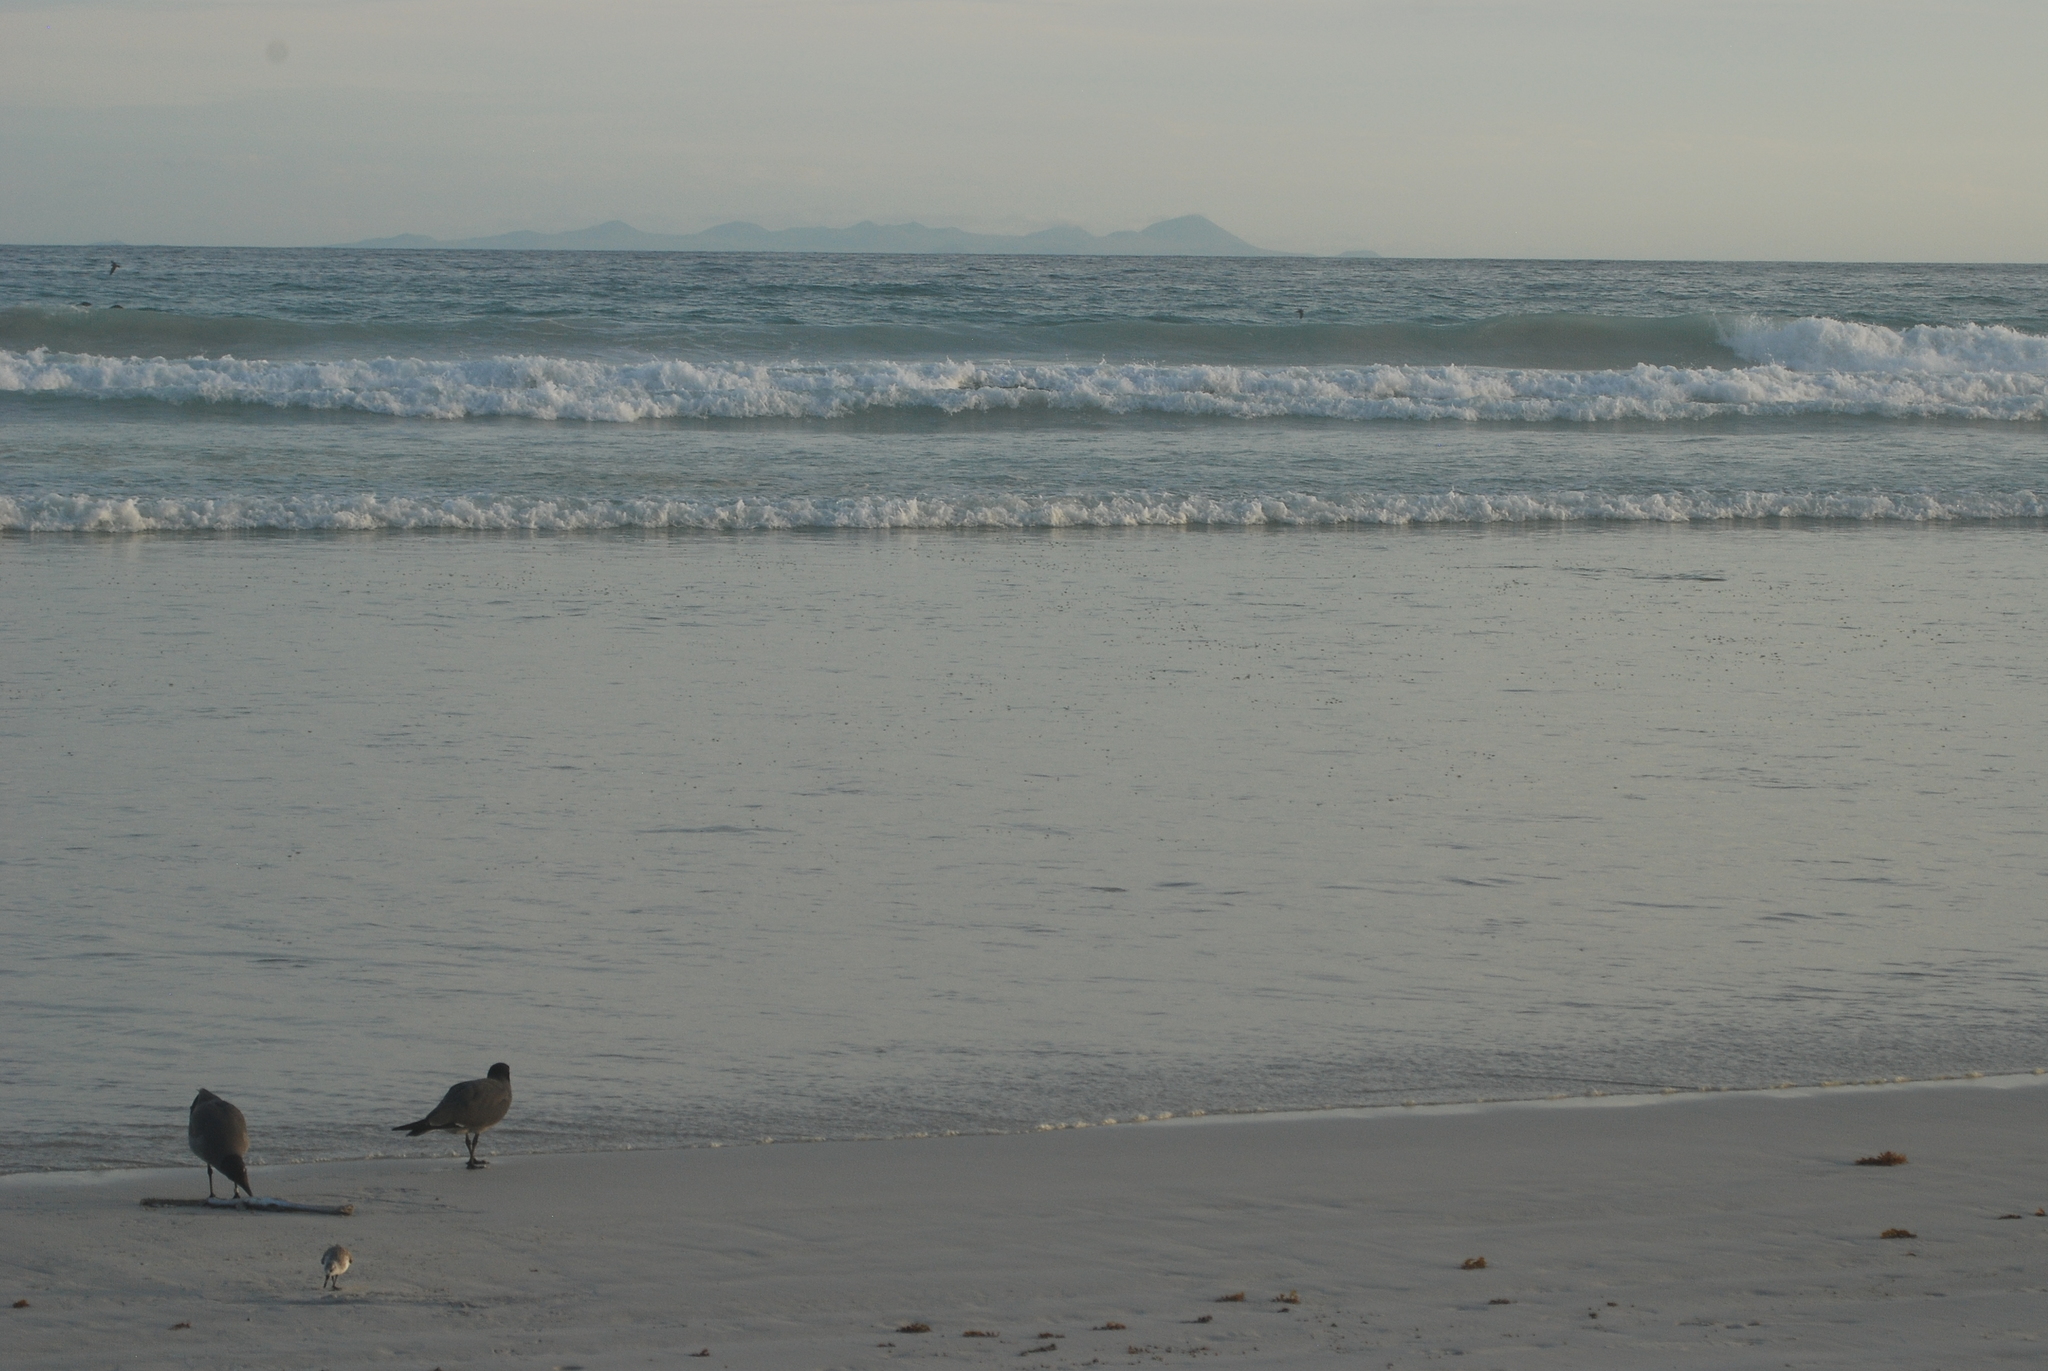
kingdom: Animalia
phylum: Chordata
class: Aves
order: Charadriiformes
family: Laridae
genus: Leucophaeus
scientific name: Leucophaeus fuliginosus
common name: Lava gull
